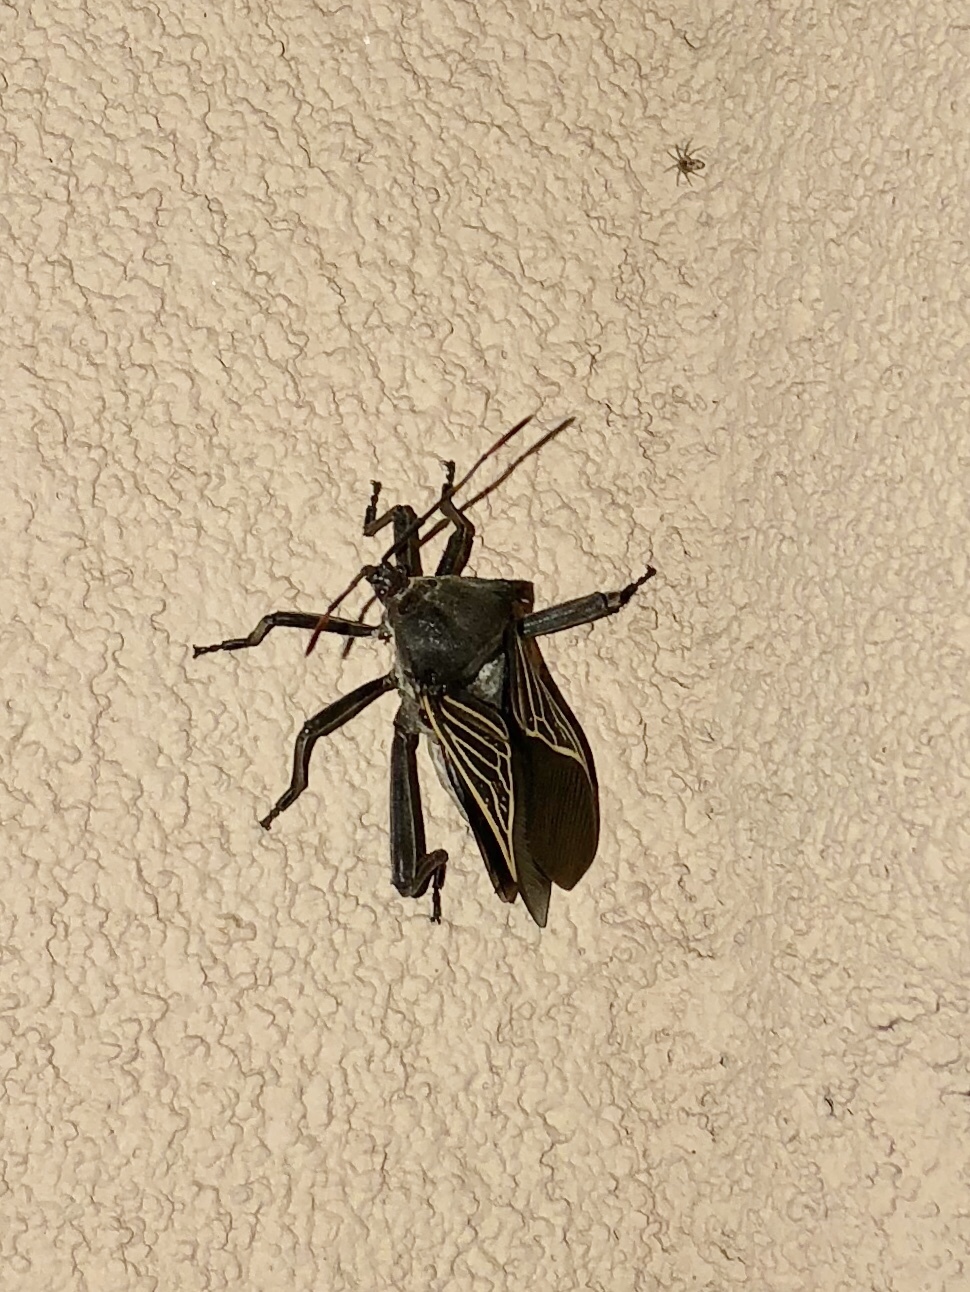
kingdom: Animalia
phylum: Arthropoda
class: Insecta
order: Hemiptera
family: Coreidae
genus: Thasus
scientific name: Thasus neocalifornicus
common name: Giant mesquite bug
